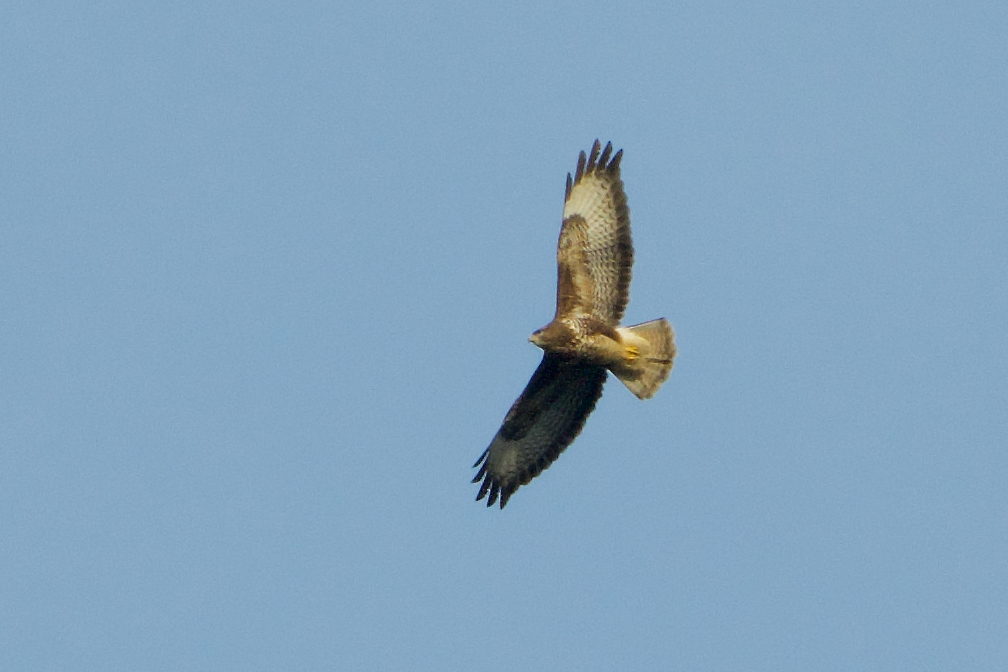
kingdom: Animalia
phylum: Chordata
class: Aves
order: Accipitriformes
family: Accipitridae
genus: Buteo
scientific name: Buteo buteo
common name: Common buzzard
